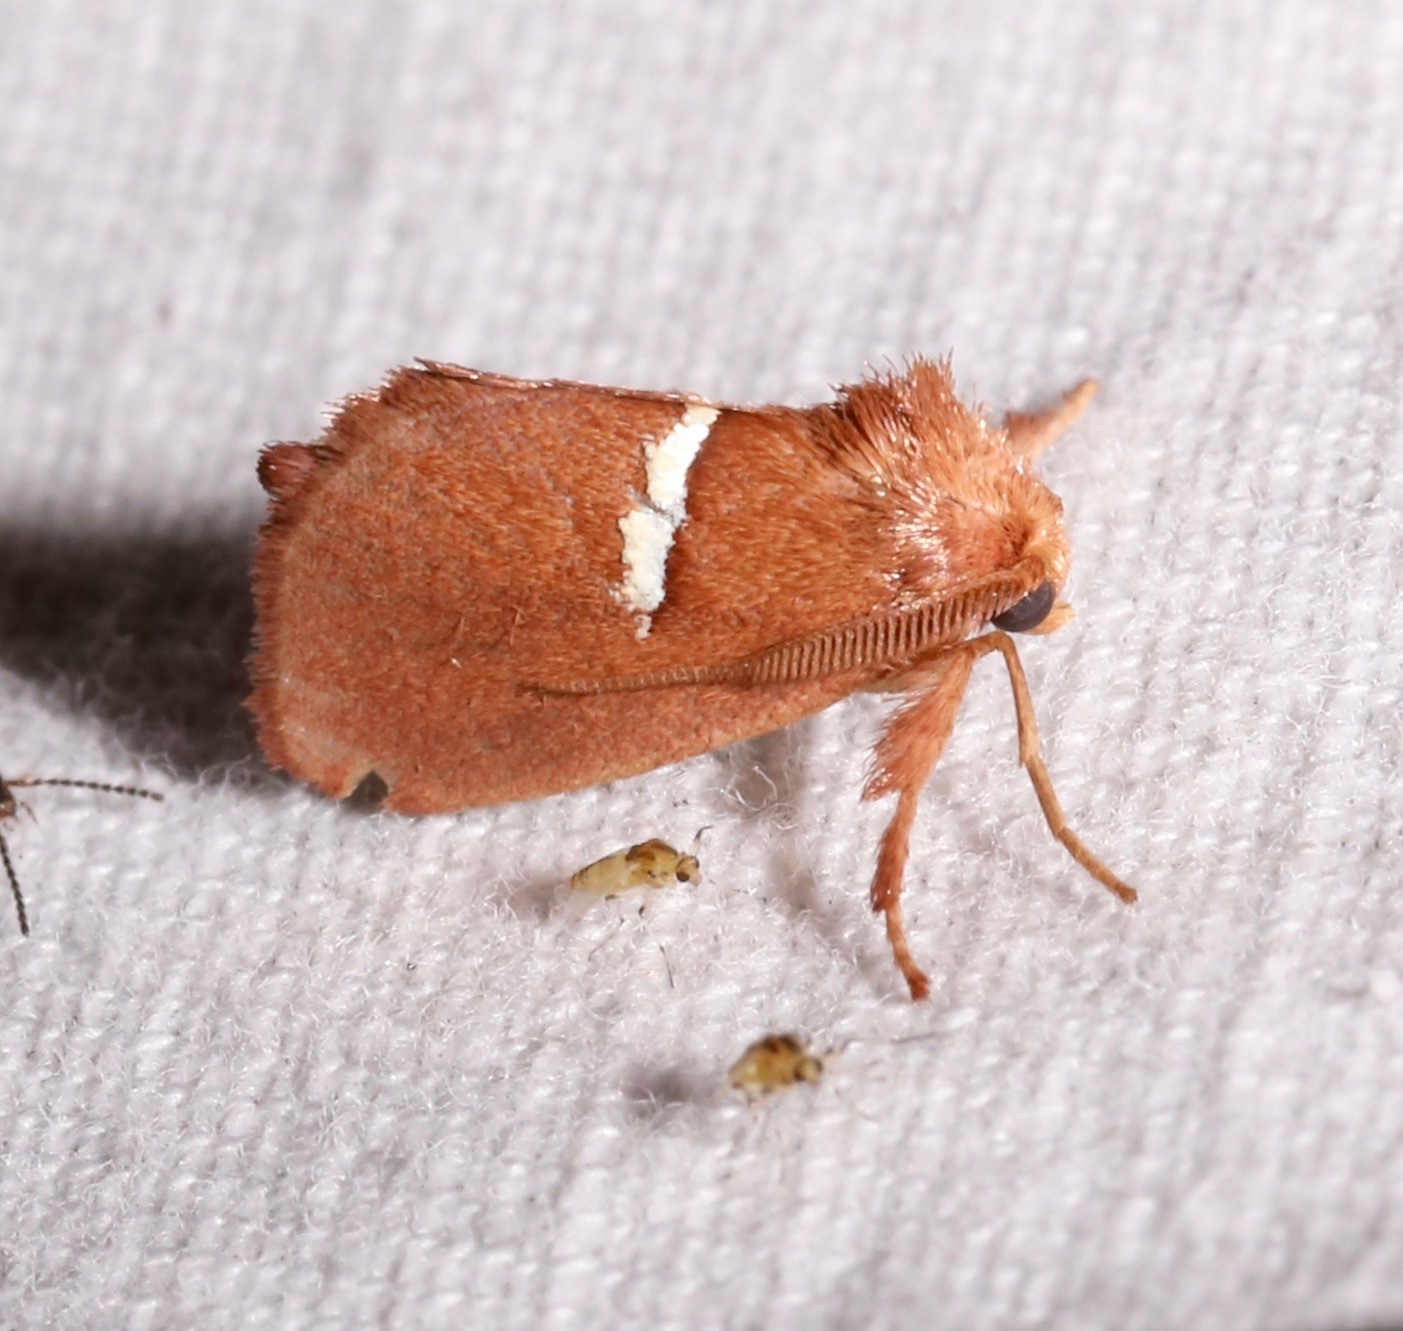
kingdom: Animalia
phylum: Arthropoda
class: Insecta
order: Lepidoptera
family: Limacodidae
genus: Monoleuca
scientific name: Monoleuca semifascia
